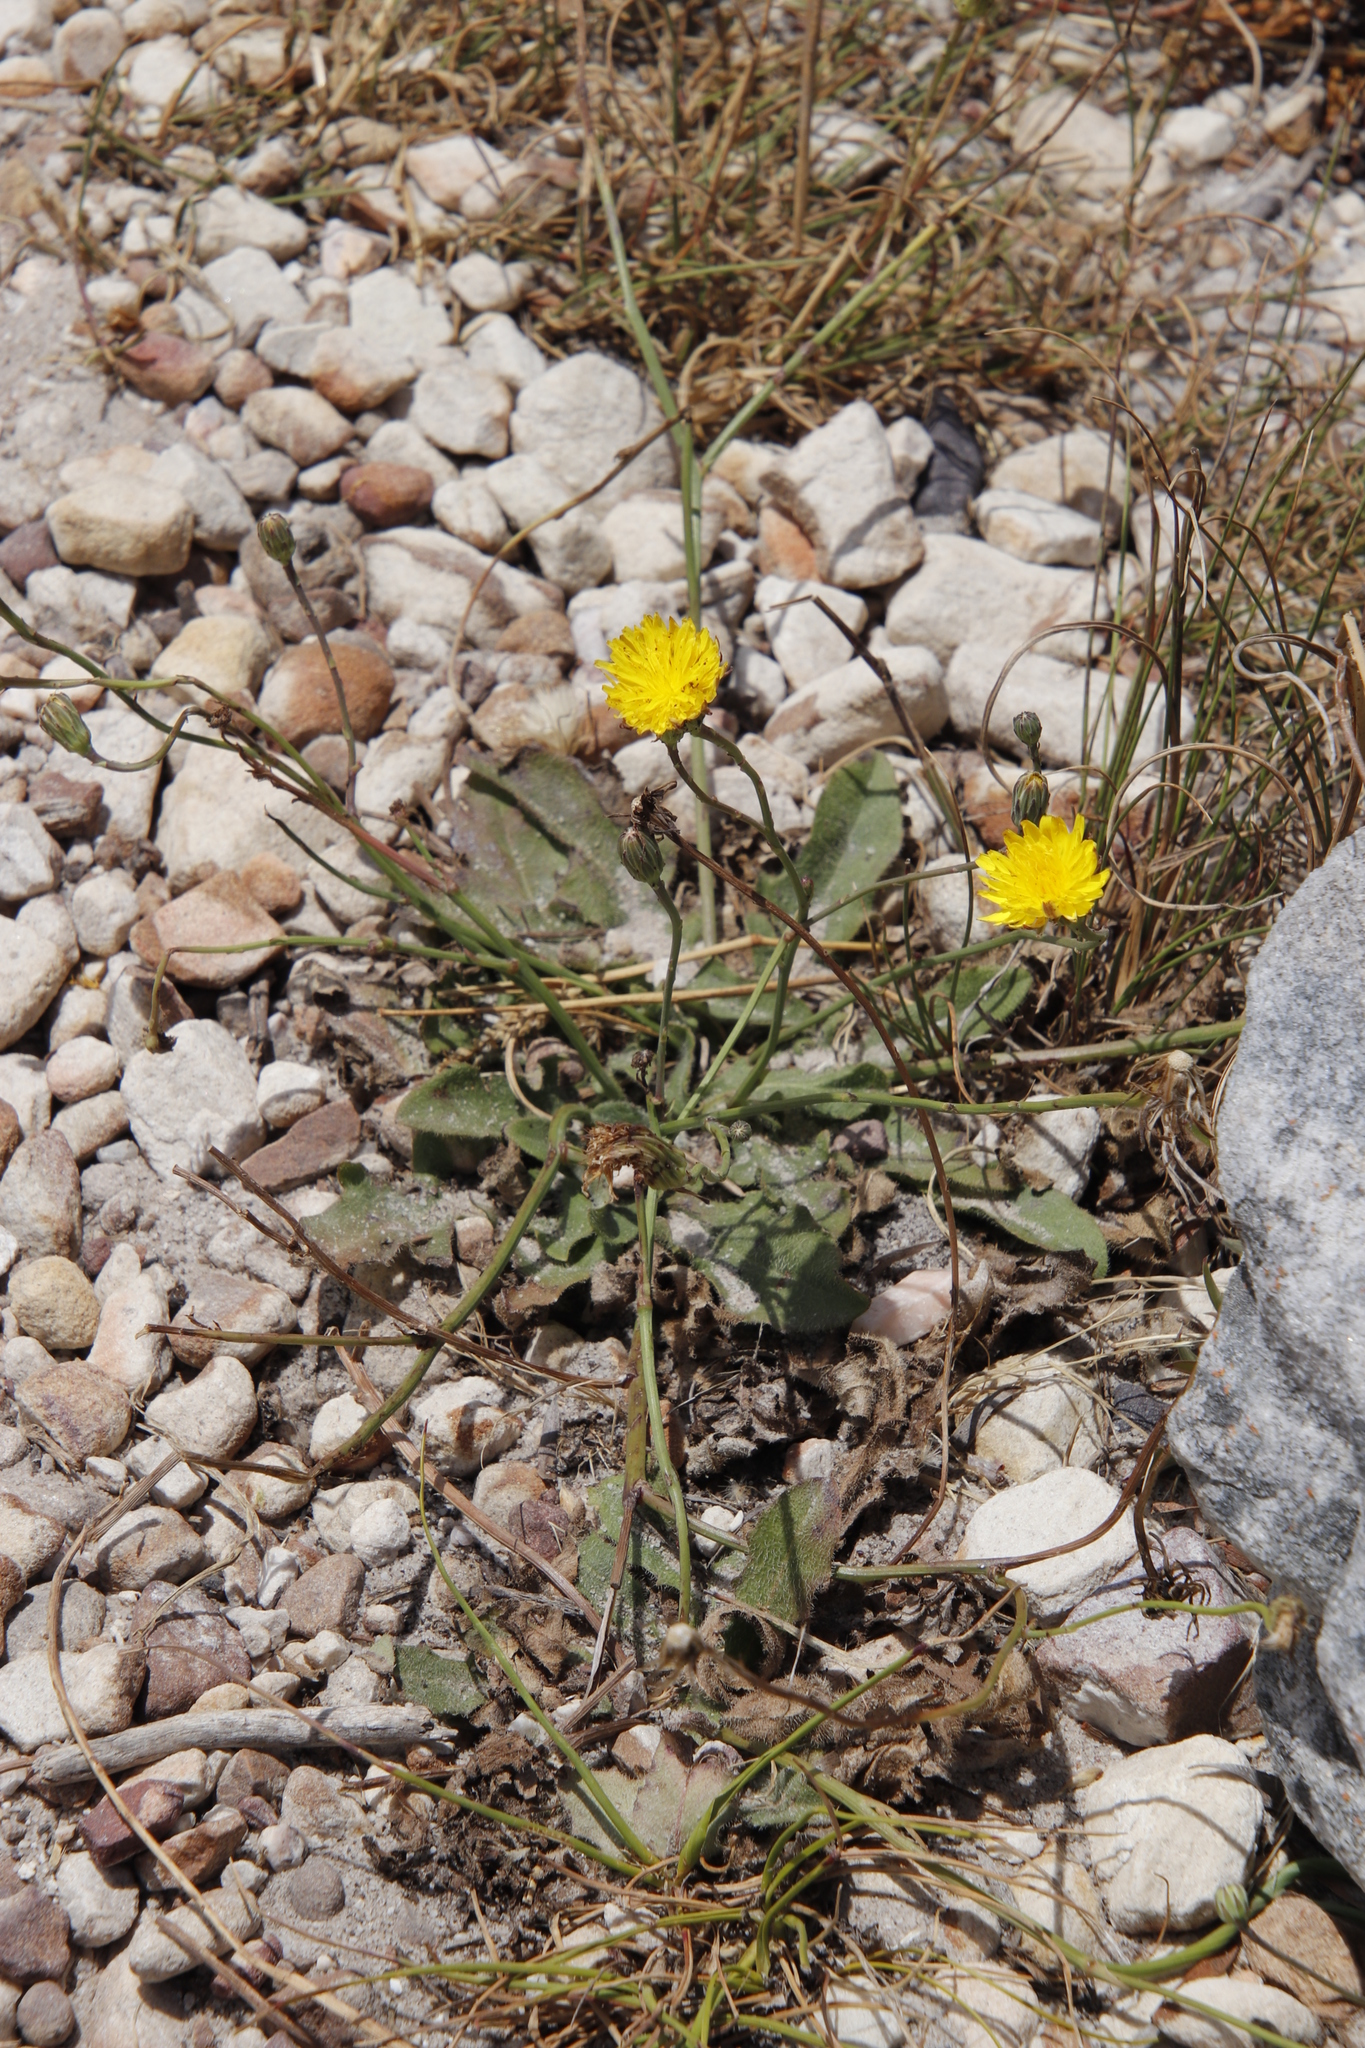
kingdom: Plantae
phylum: Tracheophyta
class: Magnoliopsida
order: Asterales
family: Asteraceae
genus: Hypochaeris
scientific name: Hypochaeris radicata
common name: Flatweed
